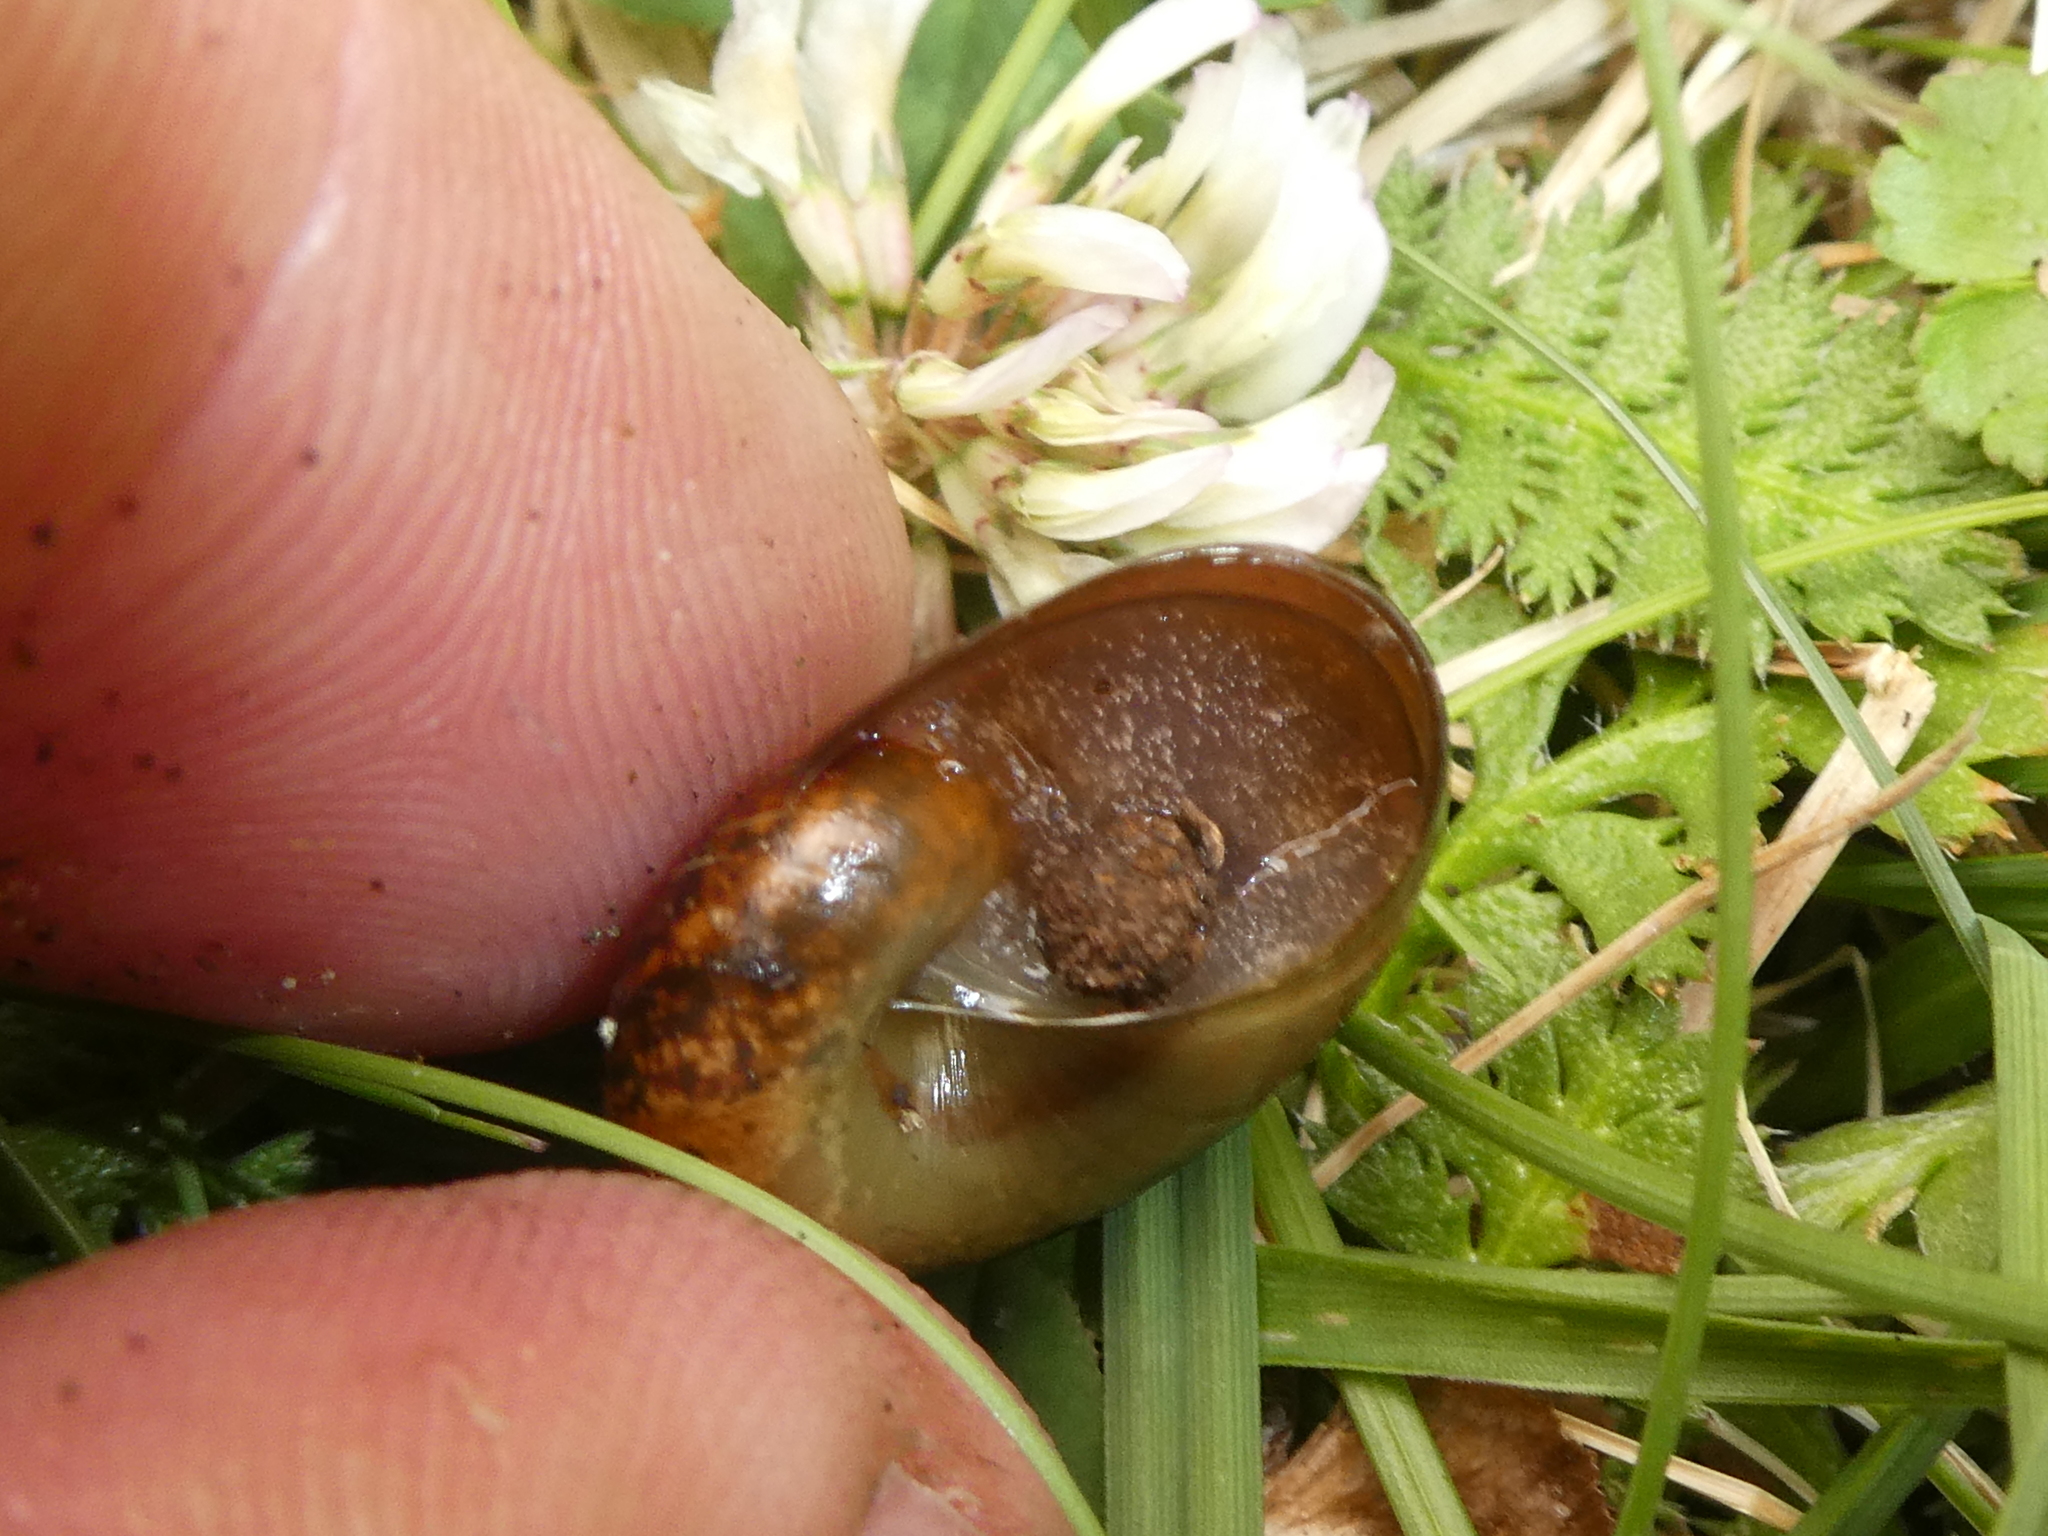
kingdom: Animalia
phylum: Mollusca
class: Gastropoda
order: Stylommatophora
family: Rhytididae
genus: Rhytida
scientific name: Rhytida oconnori
